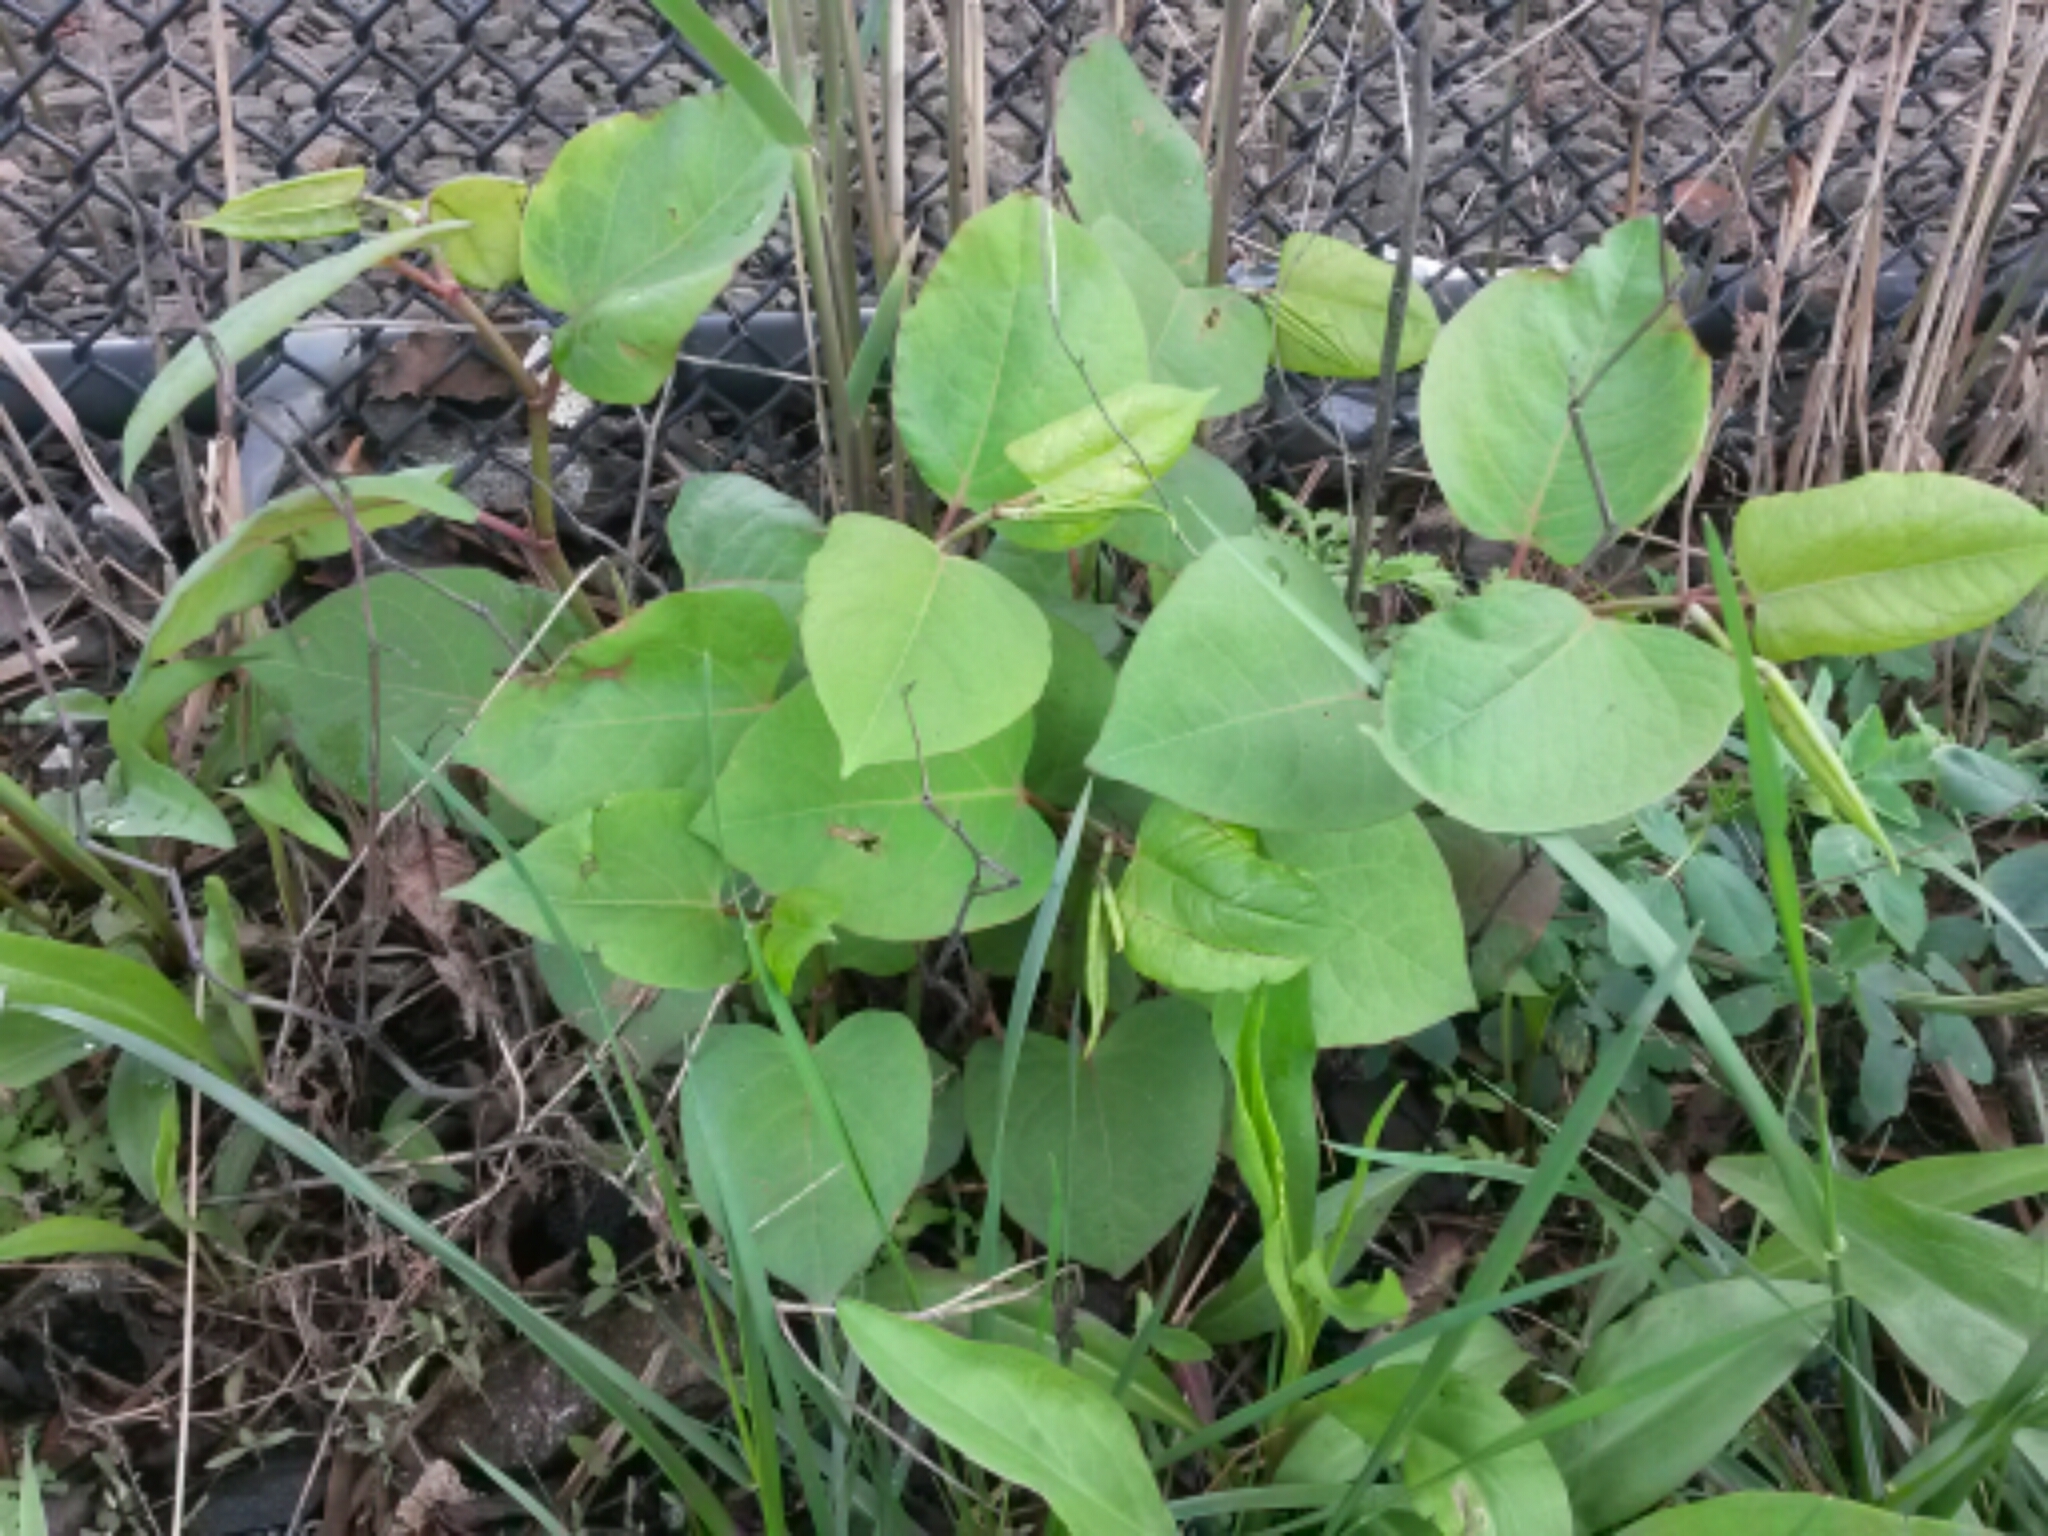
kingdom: Plantae
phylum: Tracheophyta
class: Magnoliopsida
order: Caryophyllales
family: Polygonaceae
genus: Reynoutria
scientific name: Reynoutria japonica
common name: Japanese knotweed
